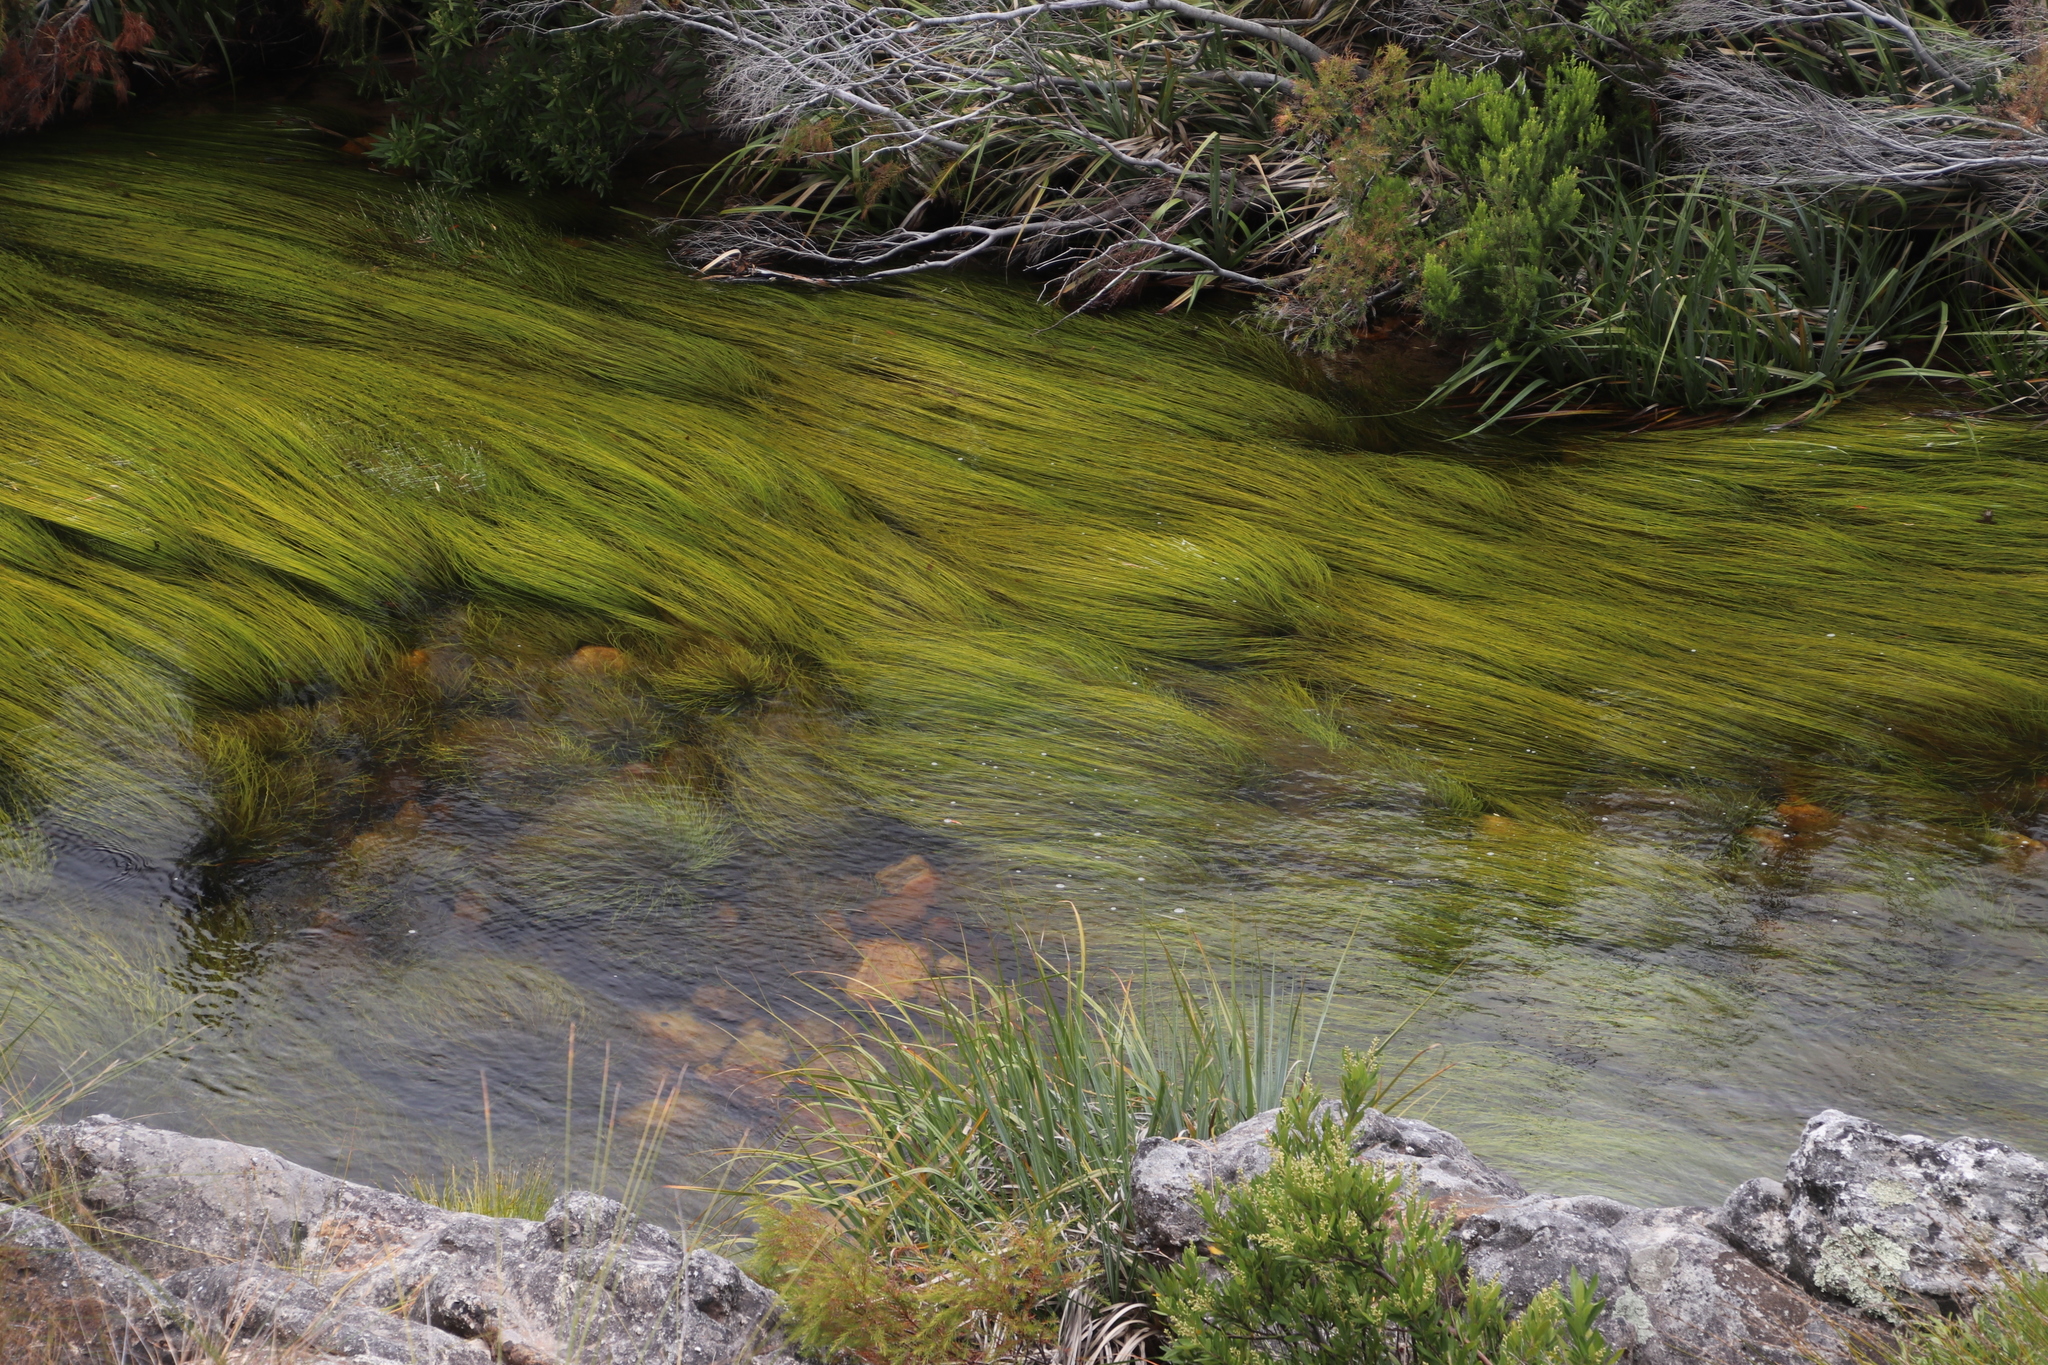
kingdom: Plantae
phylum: Tracheophyta
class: Liliopsida
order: Poales
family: Cyperaceae
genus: Isolepis
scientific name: Isolepis digitata
